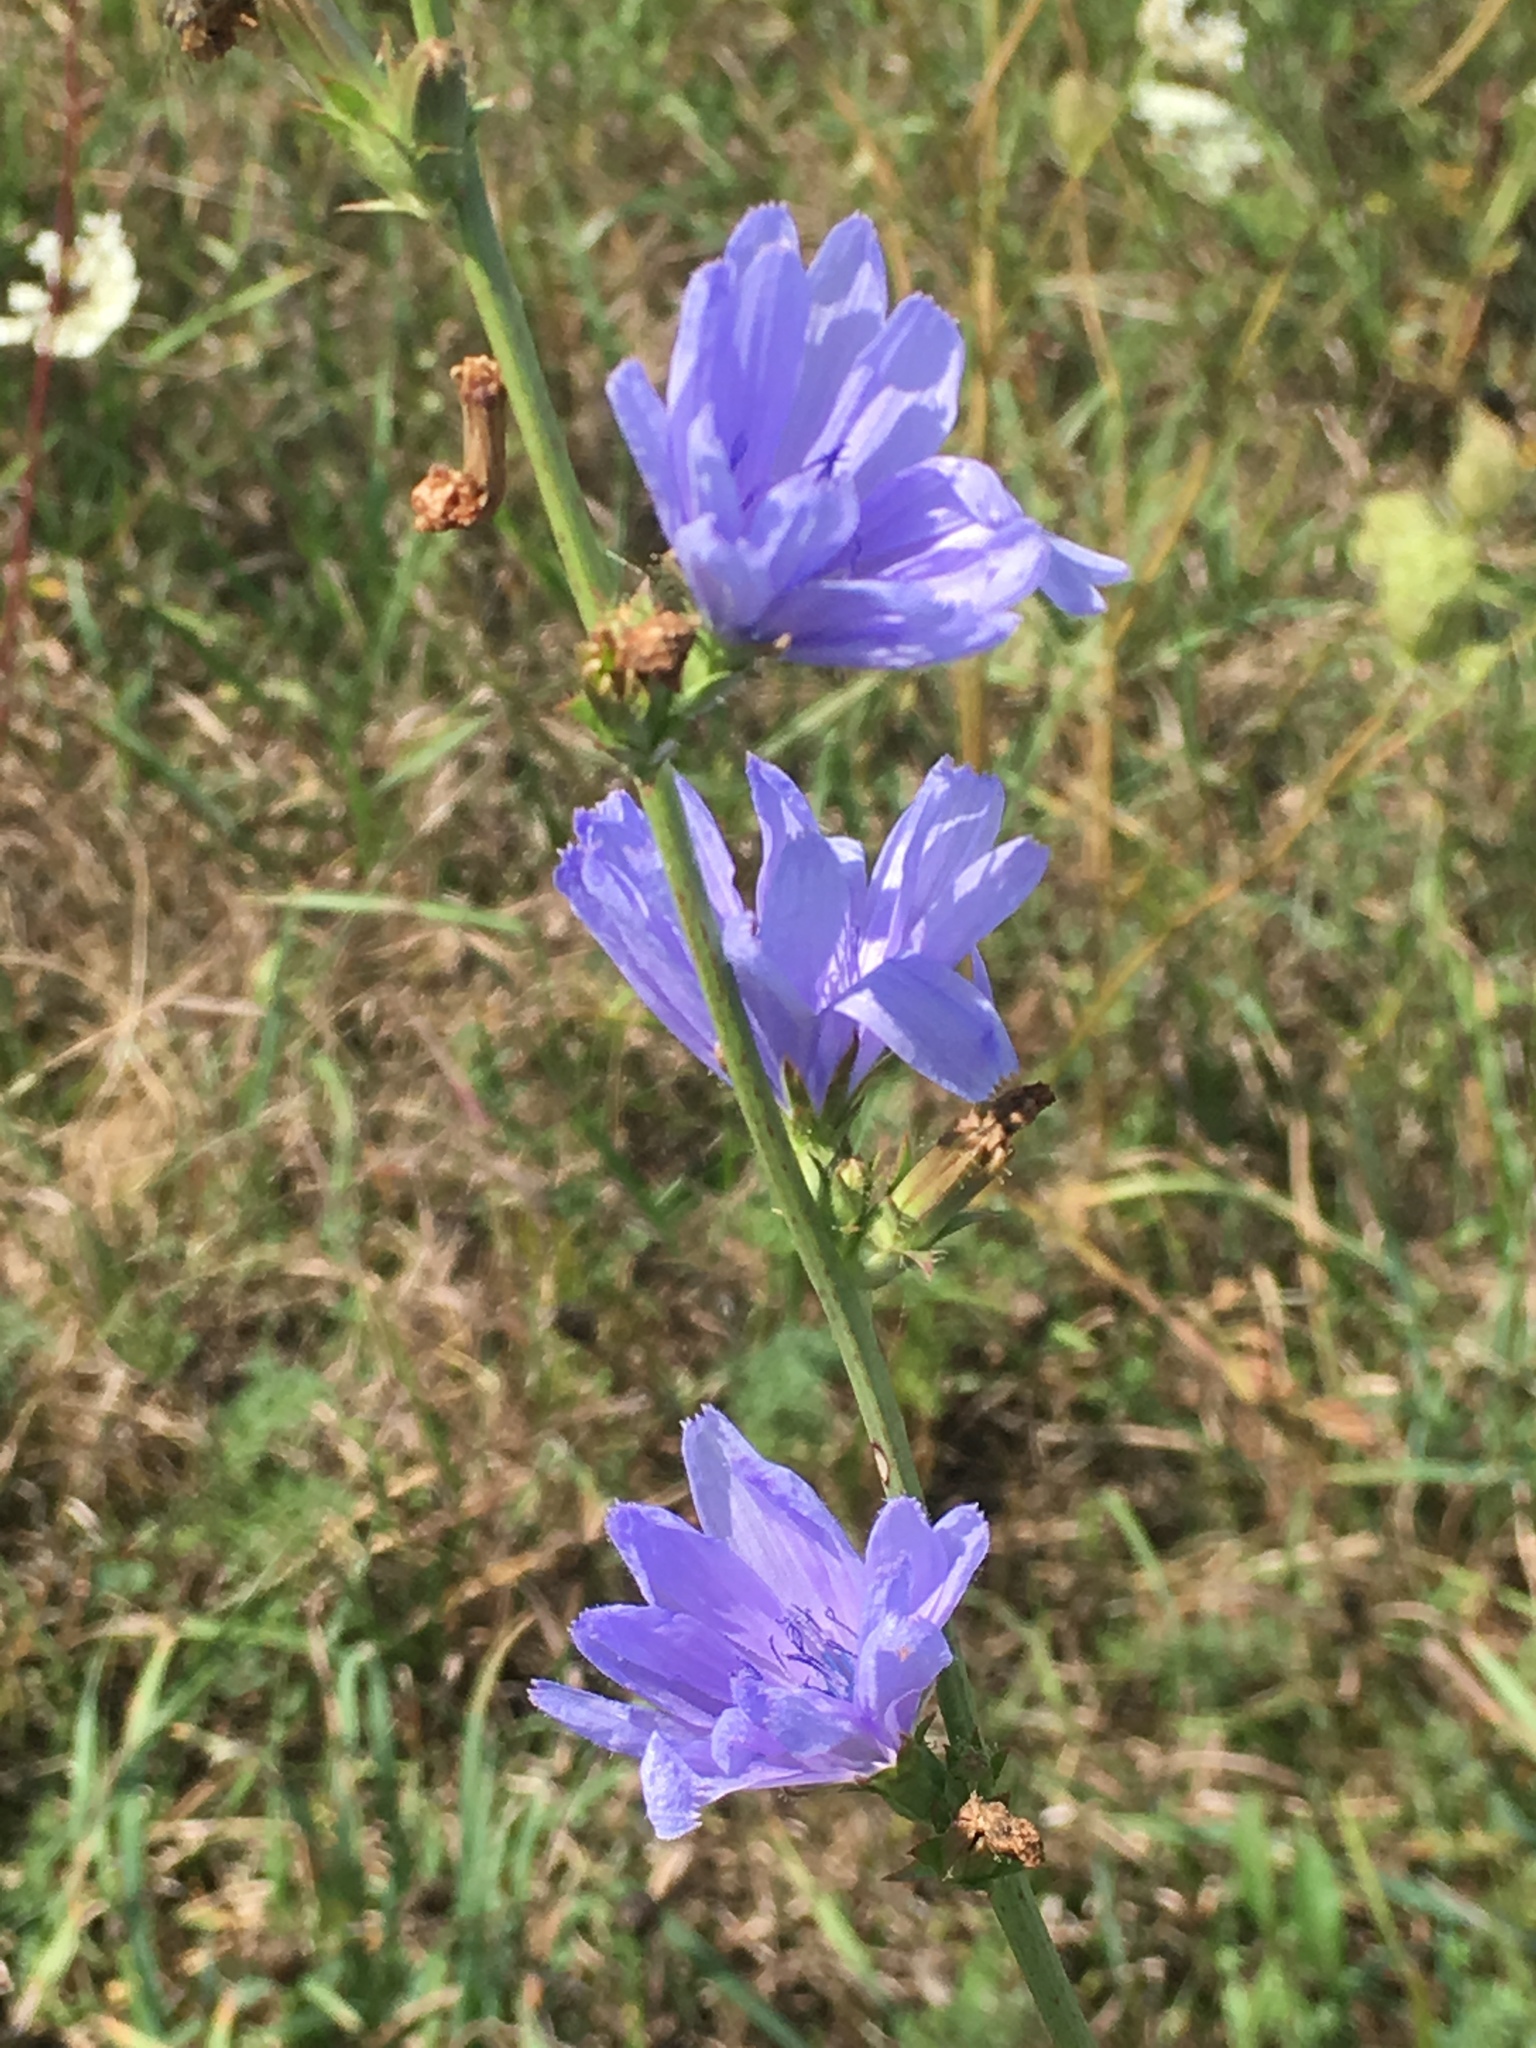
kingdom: Plantae
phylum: Tracheophyta
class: Magnoliopsida
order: Asterales
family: Asteraceae
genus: Cichorium
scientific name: Cichorium intybus
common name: Chicory
